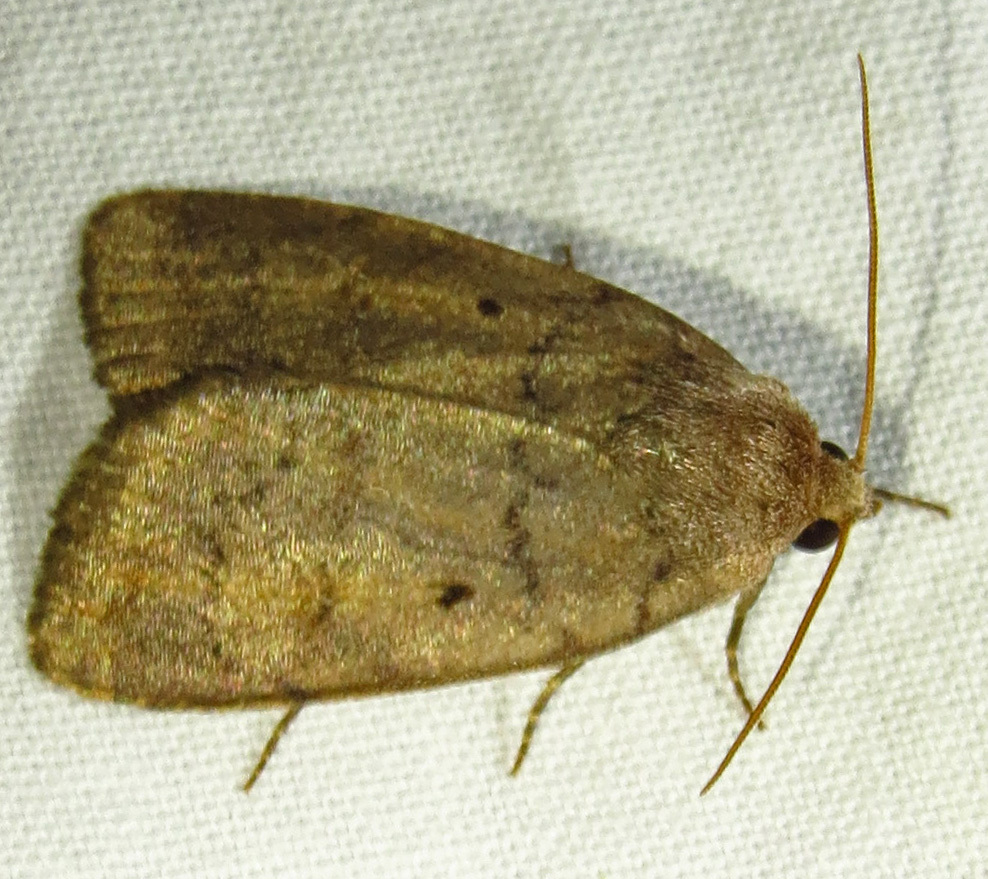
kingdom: Animalia
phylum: Arthropoda
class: Insecta
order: Lepidoptera
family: Noctuidae
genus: Athetis
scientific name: Athetis tarda
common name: Slowpoke moth
